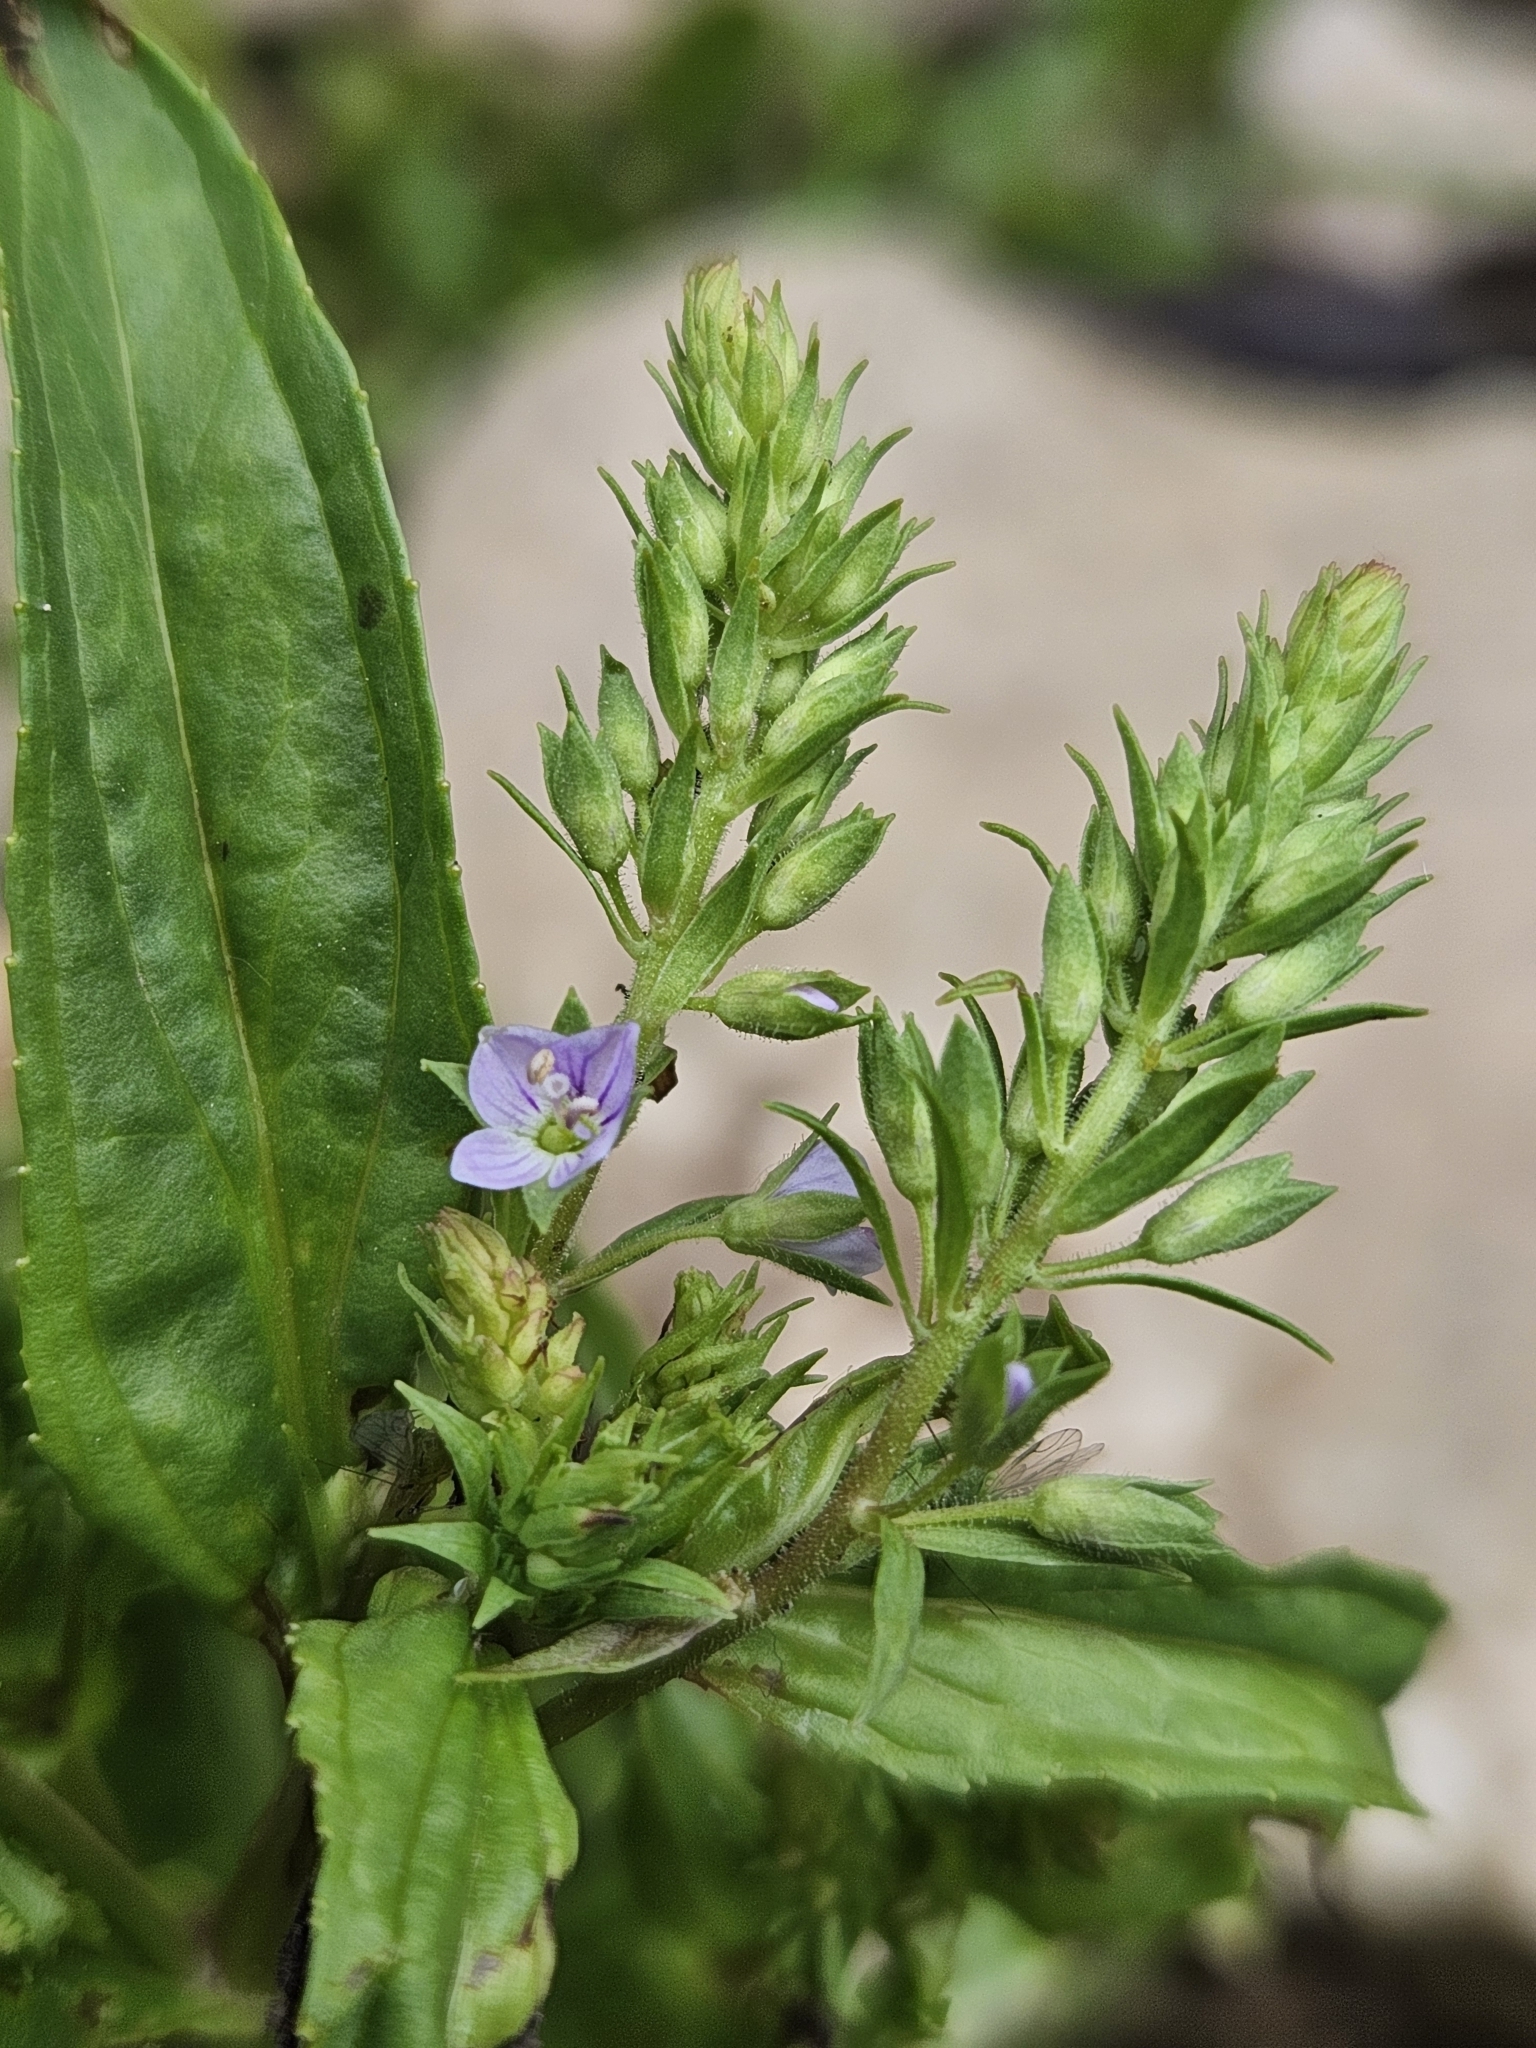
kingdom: Plantae
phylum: Tracheophyta
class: Magnoliopsida
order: Lamiales
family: Plantaginaceae
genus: Veronica
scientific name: Veronica anagallis-aquatica
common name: Water speedwell
